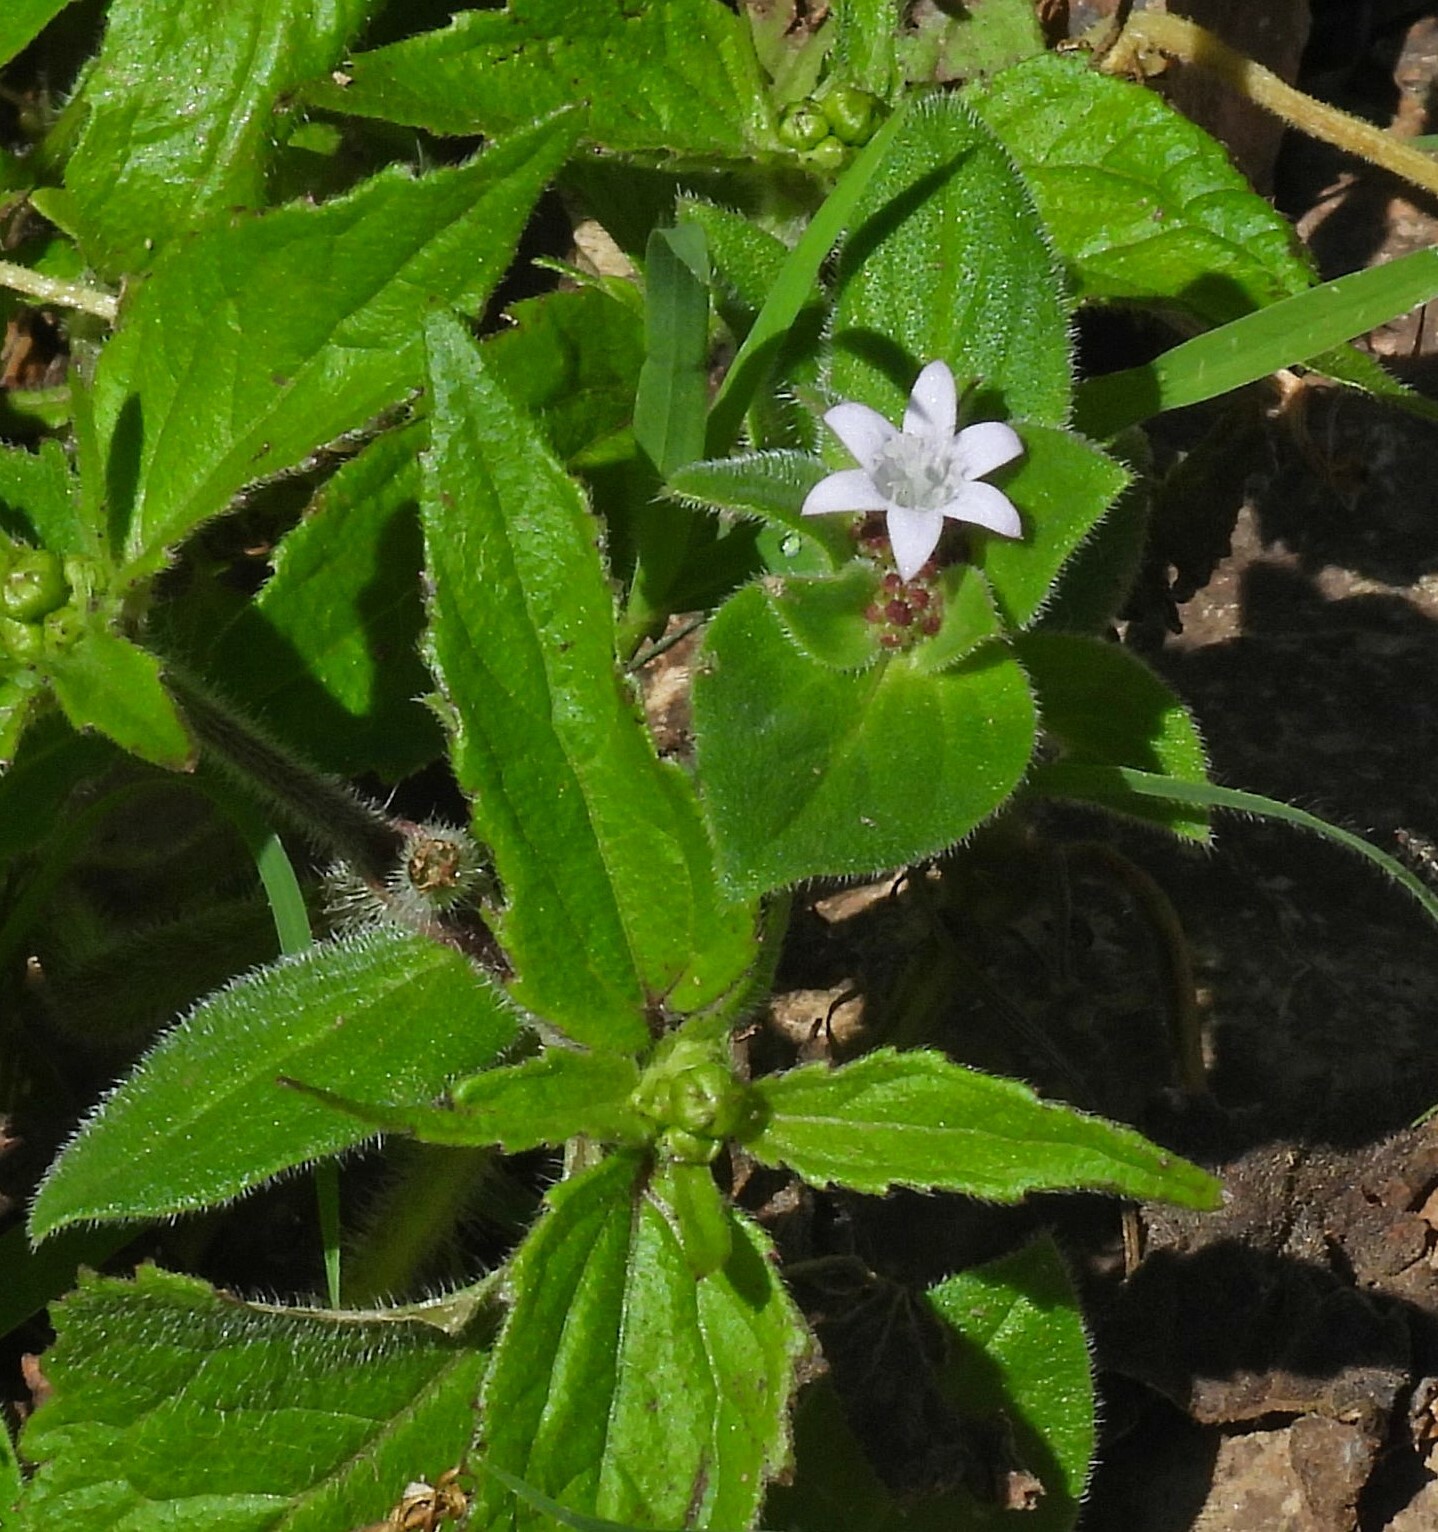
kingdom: Plantae
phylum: Tracheophyta
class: Magnoliopsida
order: Gentianales
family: Rubiaceae
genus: Richardia
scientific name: Richardia brasiliensis
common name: Tropical mexican clover
